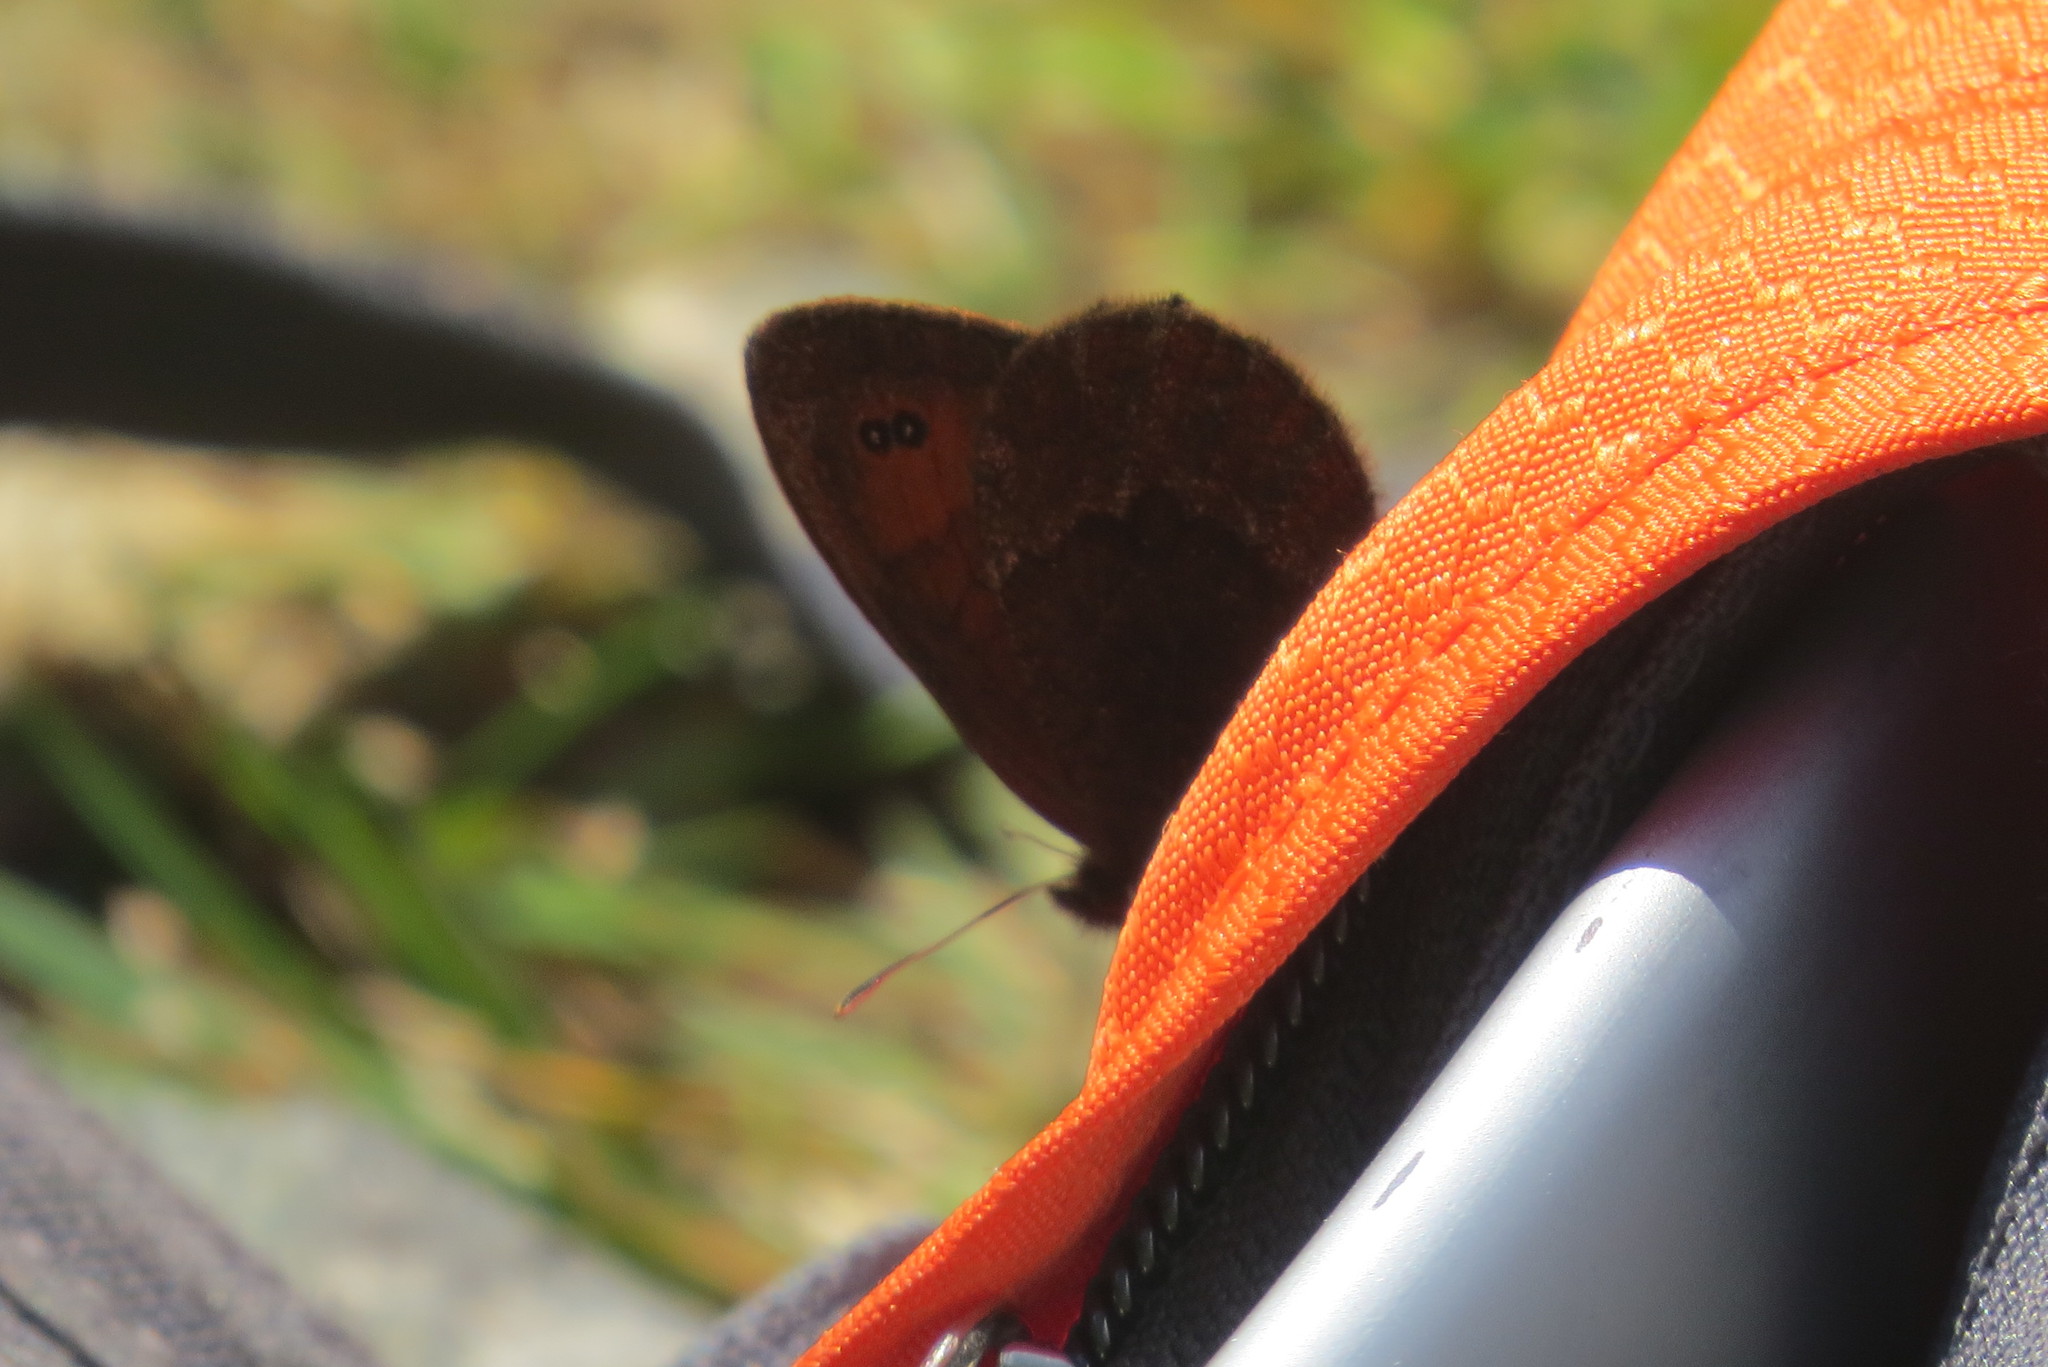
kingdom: Animalia
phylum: Arthropoda
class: Insecta
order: Lepidoptera
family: Nymphalidae
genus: Erebia
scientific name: Erebia pronoe
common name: Water ringlet
